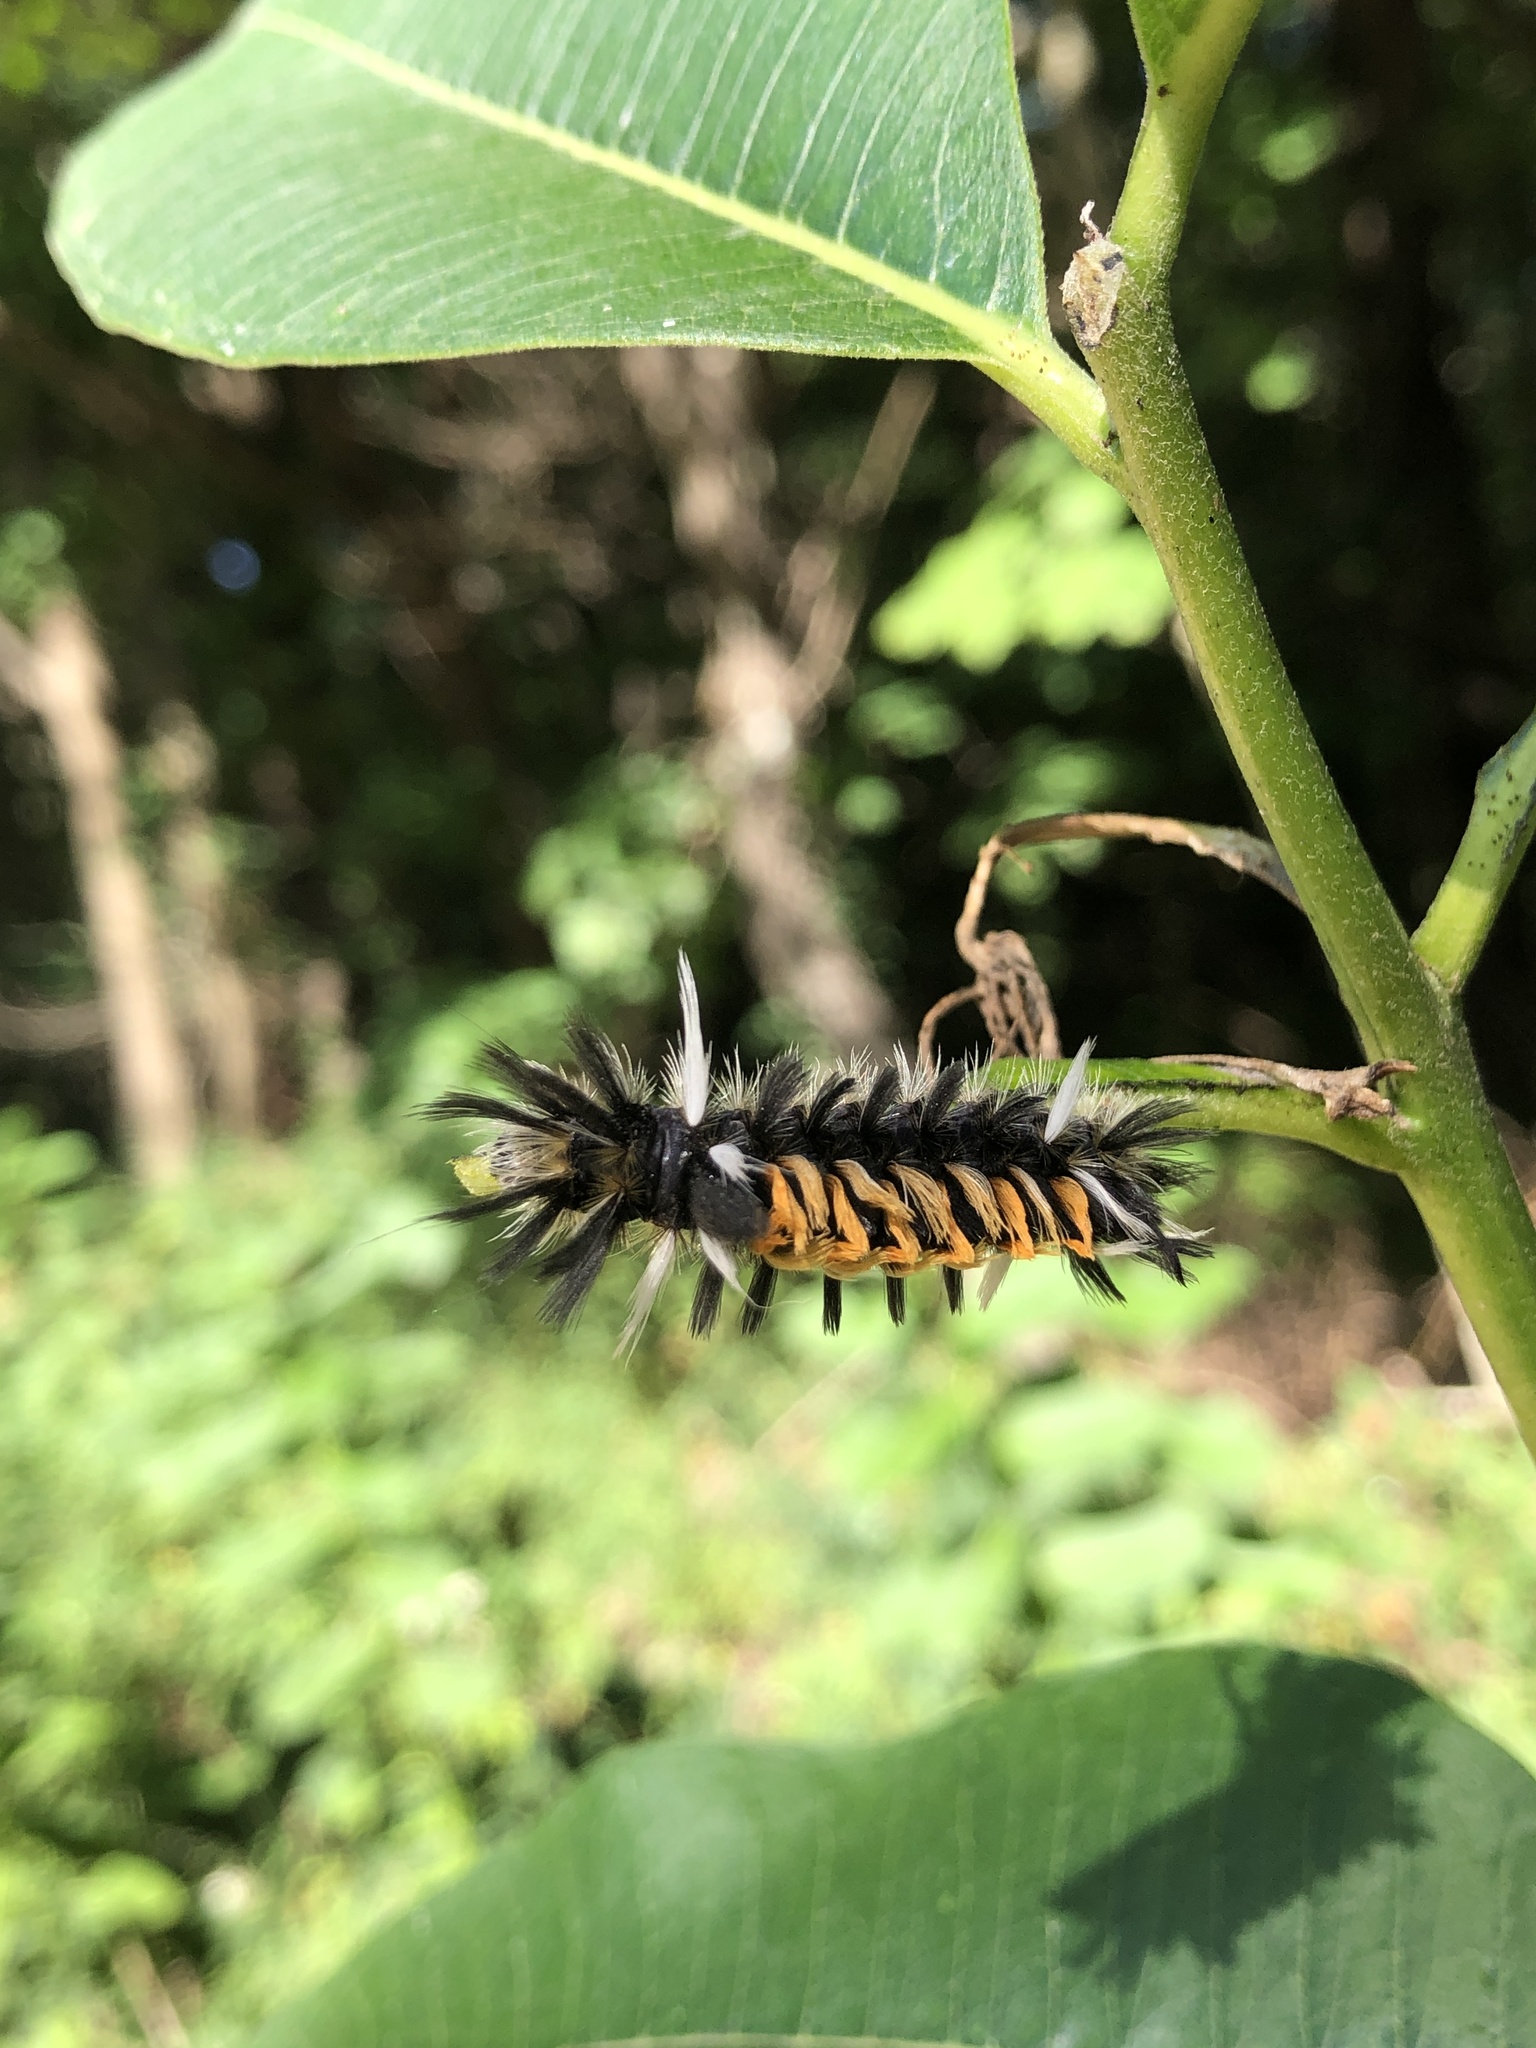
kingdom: Animalia
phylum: Arthropoda
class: Insecta
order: Lepidoptera
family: Erebidae
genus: Euchaetes
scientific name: Euchaetes egle
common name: Milkweed tussock moth
